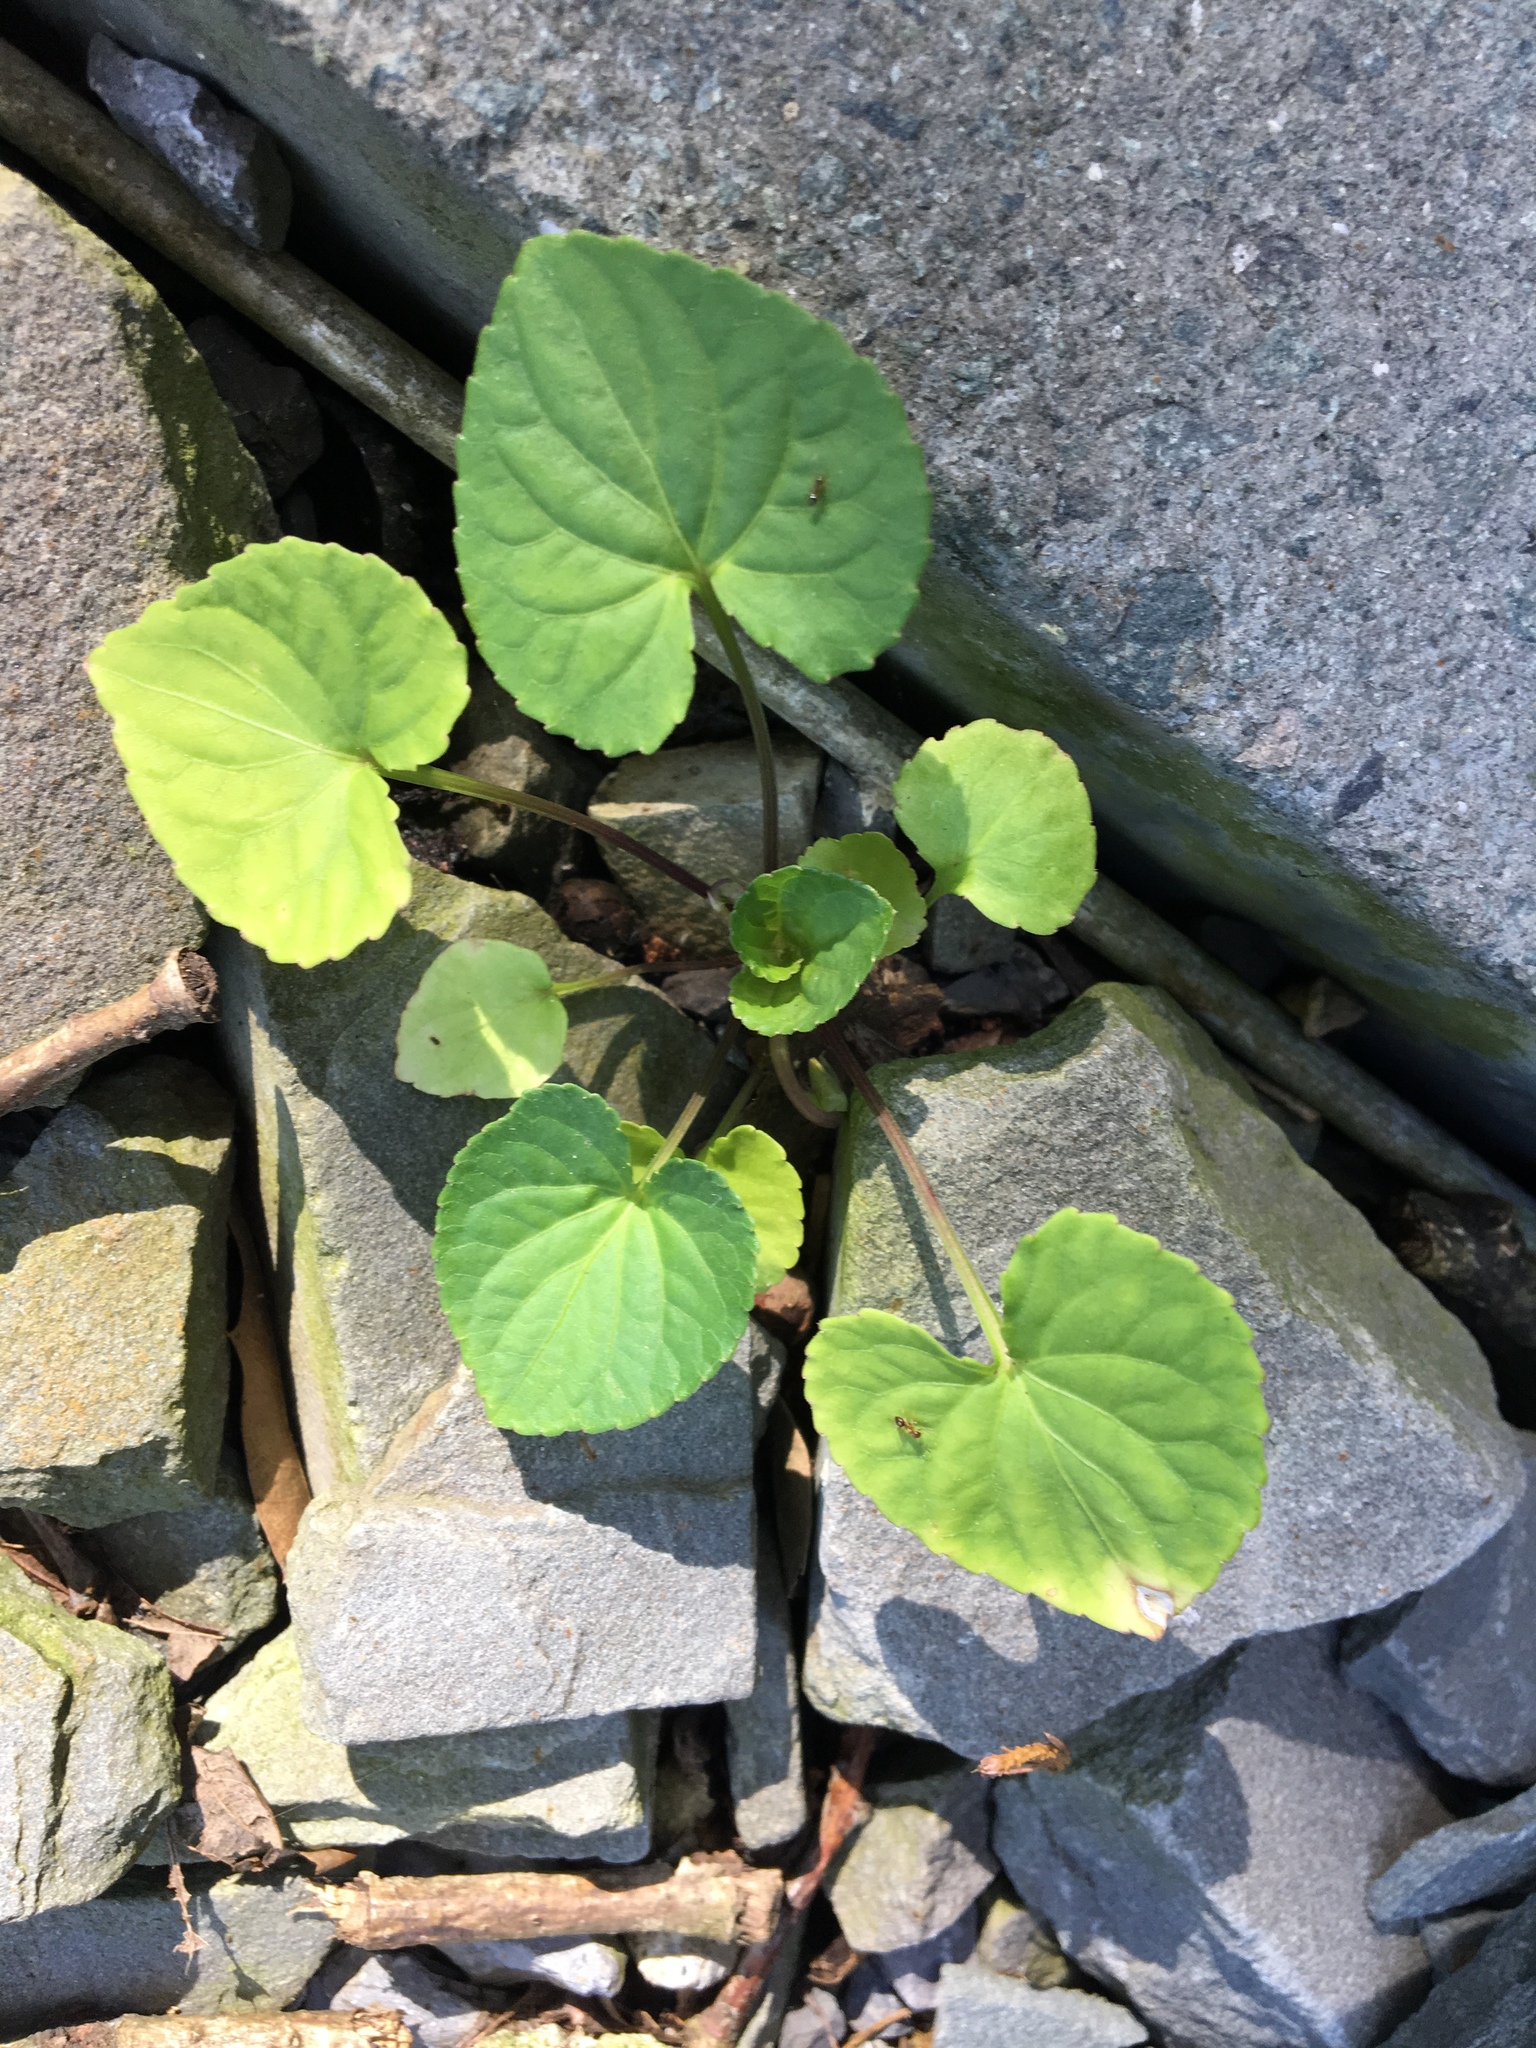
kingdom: Plantae
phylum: Tracheophyta
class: Magnoliopsida
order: Malpighiales
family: Violaceae
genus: Viola
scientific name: Viola sororia
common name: Dooryard violet
